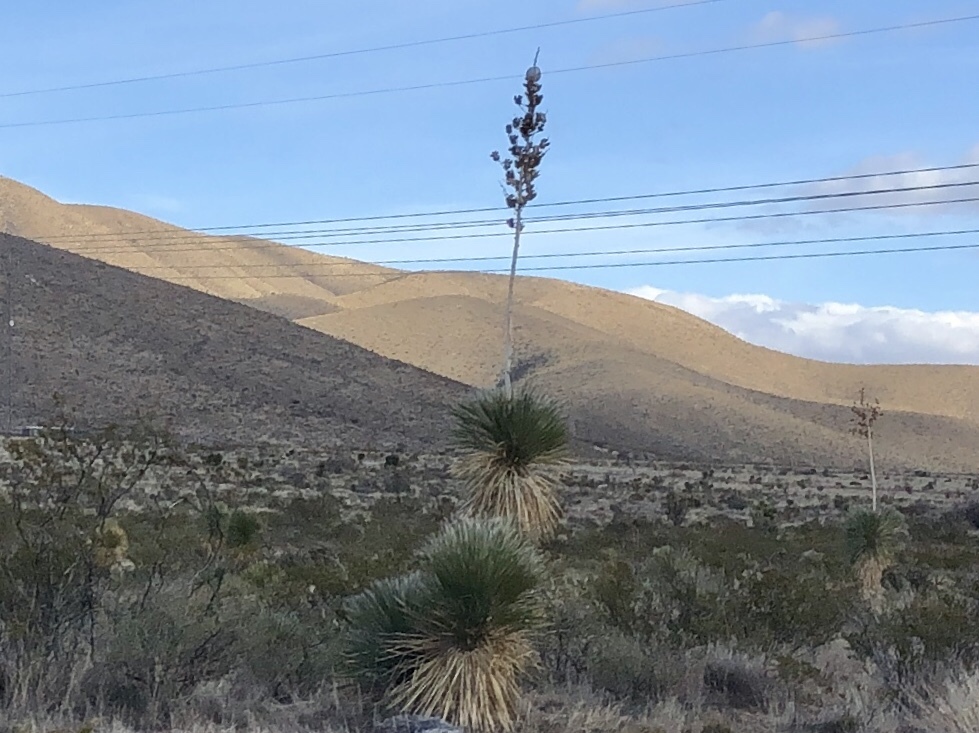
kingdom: Plantae
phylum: Tracheophyta
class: Liliopsida
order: Asparagales
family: Asparagaceae
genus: Yucca
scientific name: Yucca elata
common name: Palmella
